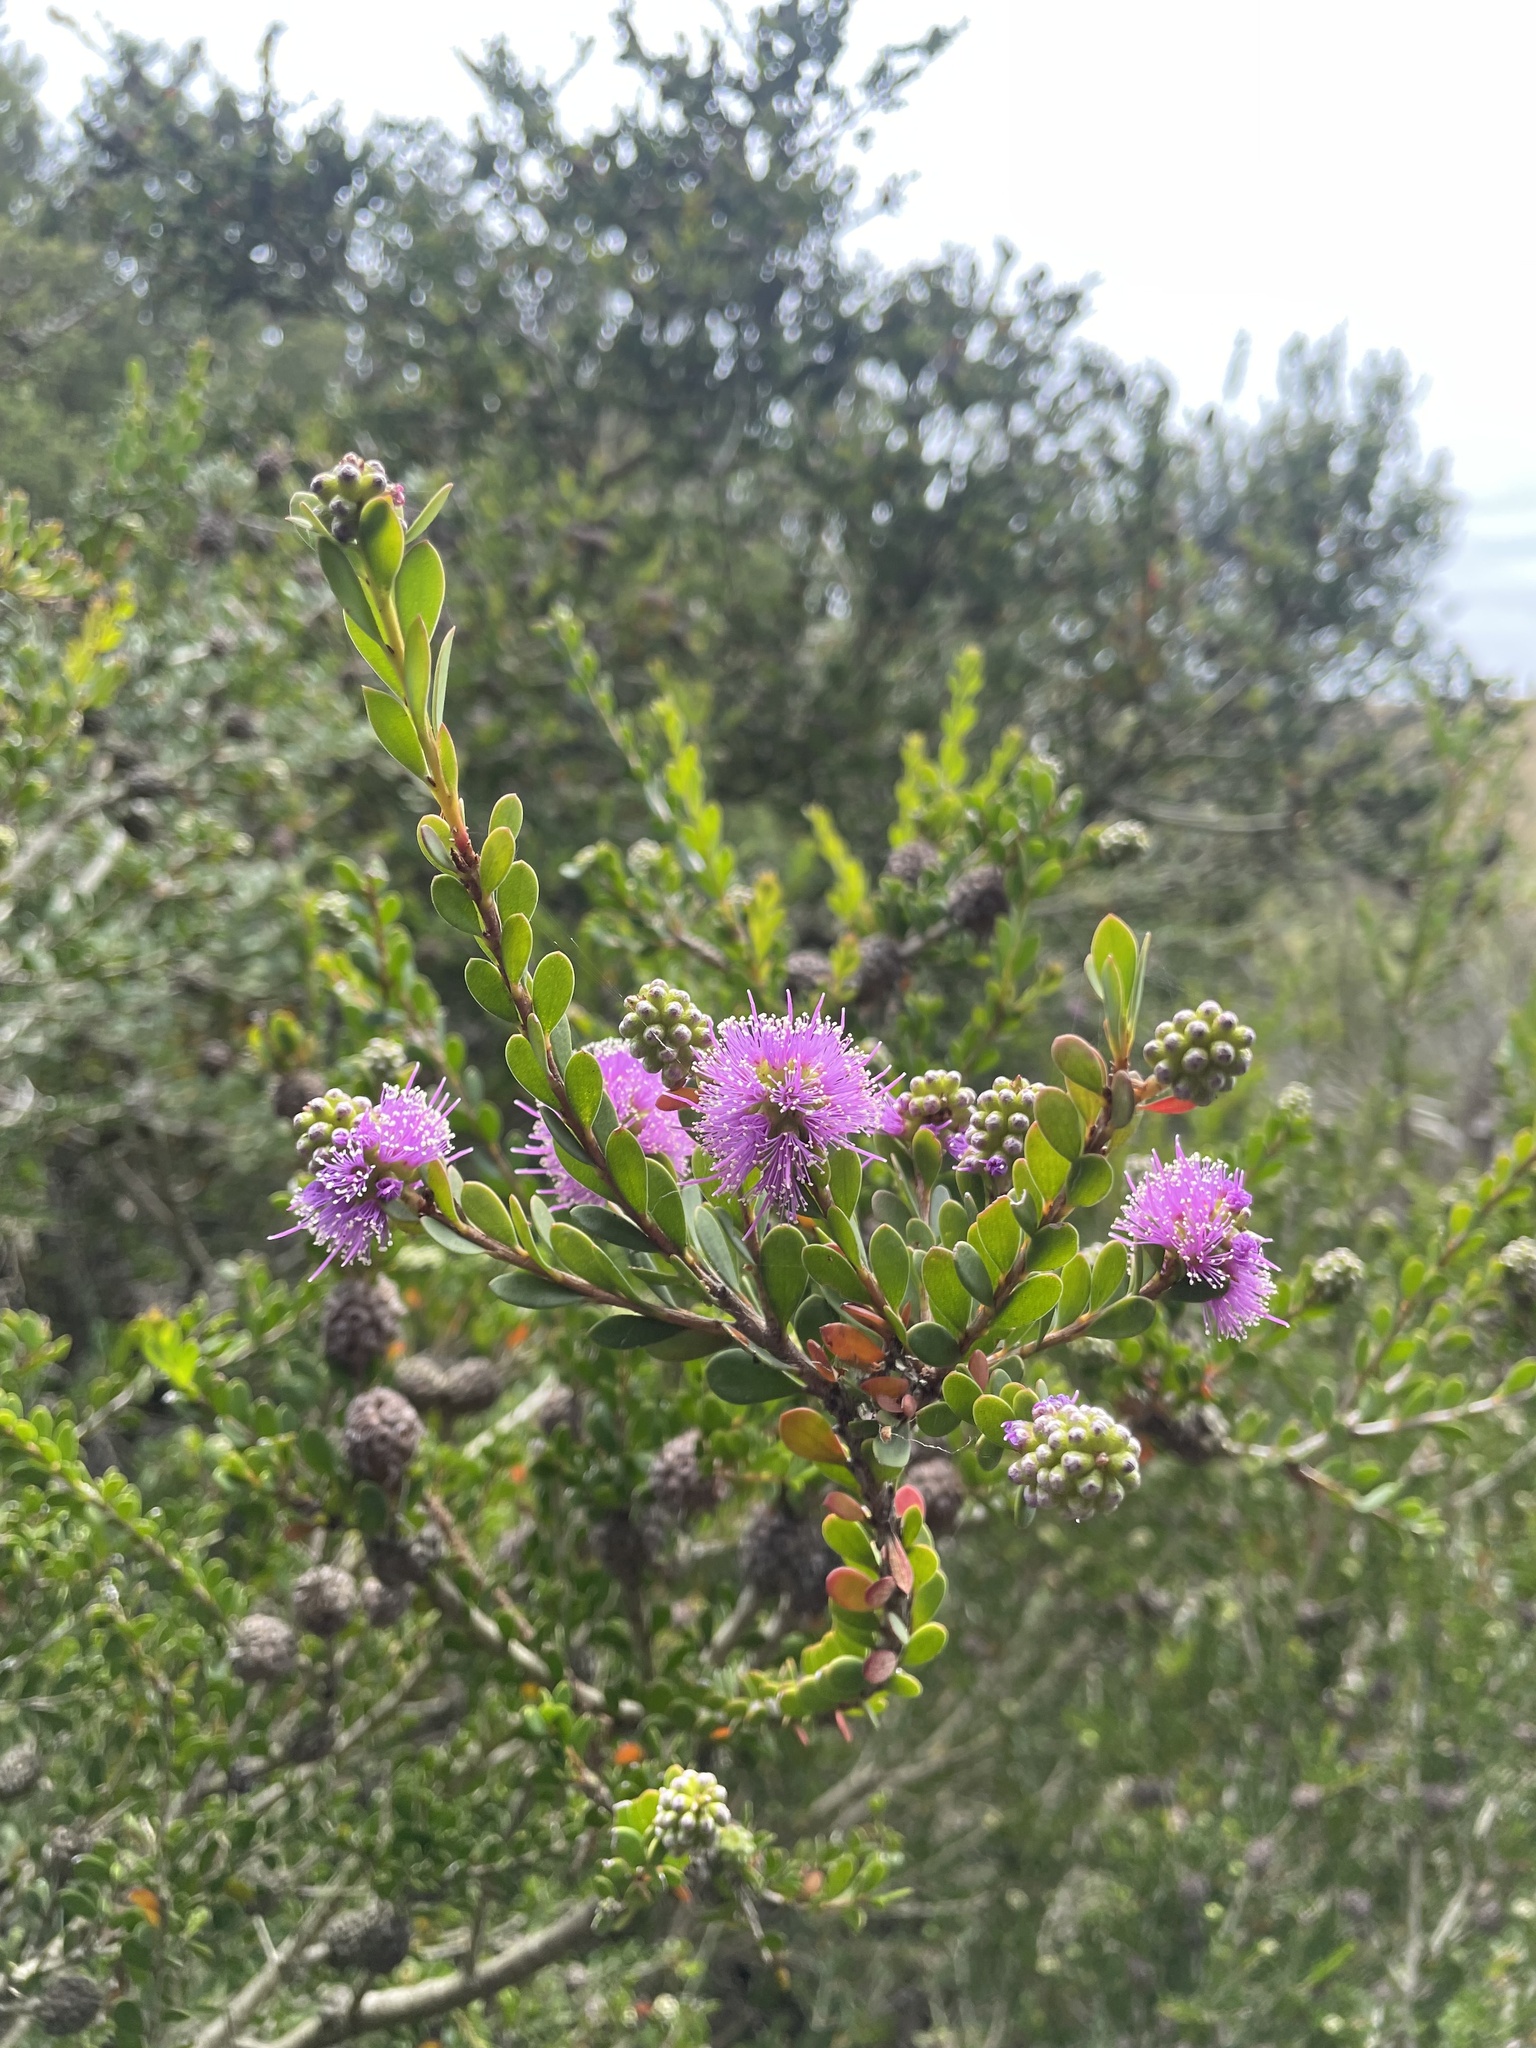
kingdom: Plantae
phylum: Tracheophyta
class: Magnoliopsida
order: Myrtales
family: Myrtaceae
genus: Melaleuca
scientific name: Melaleuca nesophila
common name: Mauve honey myrtle
